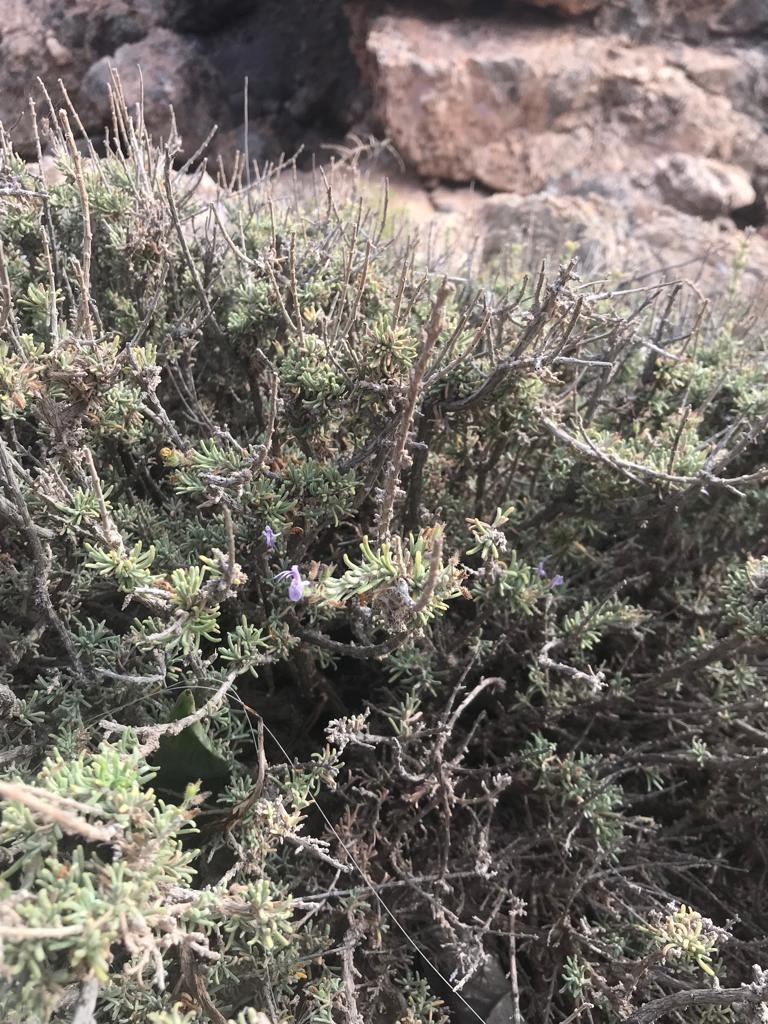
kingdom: Plantae
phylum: Tracheophyta
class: Magnoliopsida
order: Lamiales
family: Lamiaceae
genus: Salvia
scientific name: Salvia granatensis
